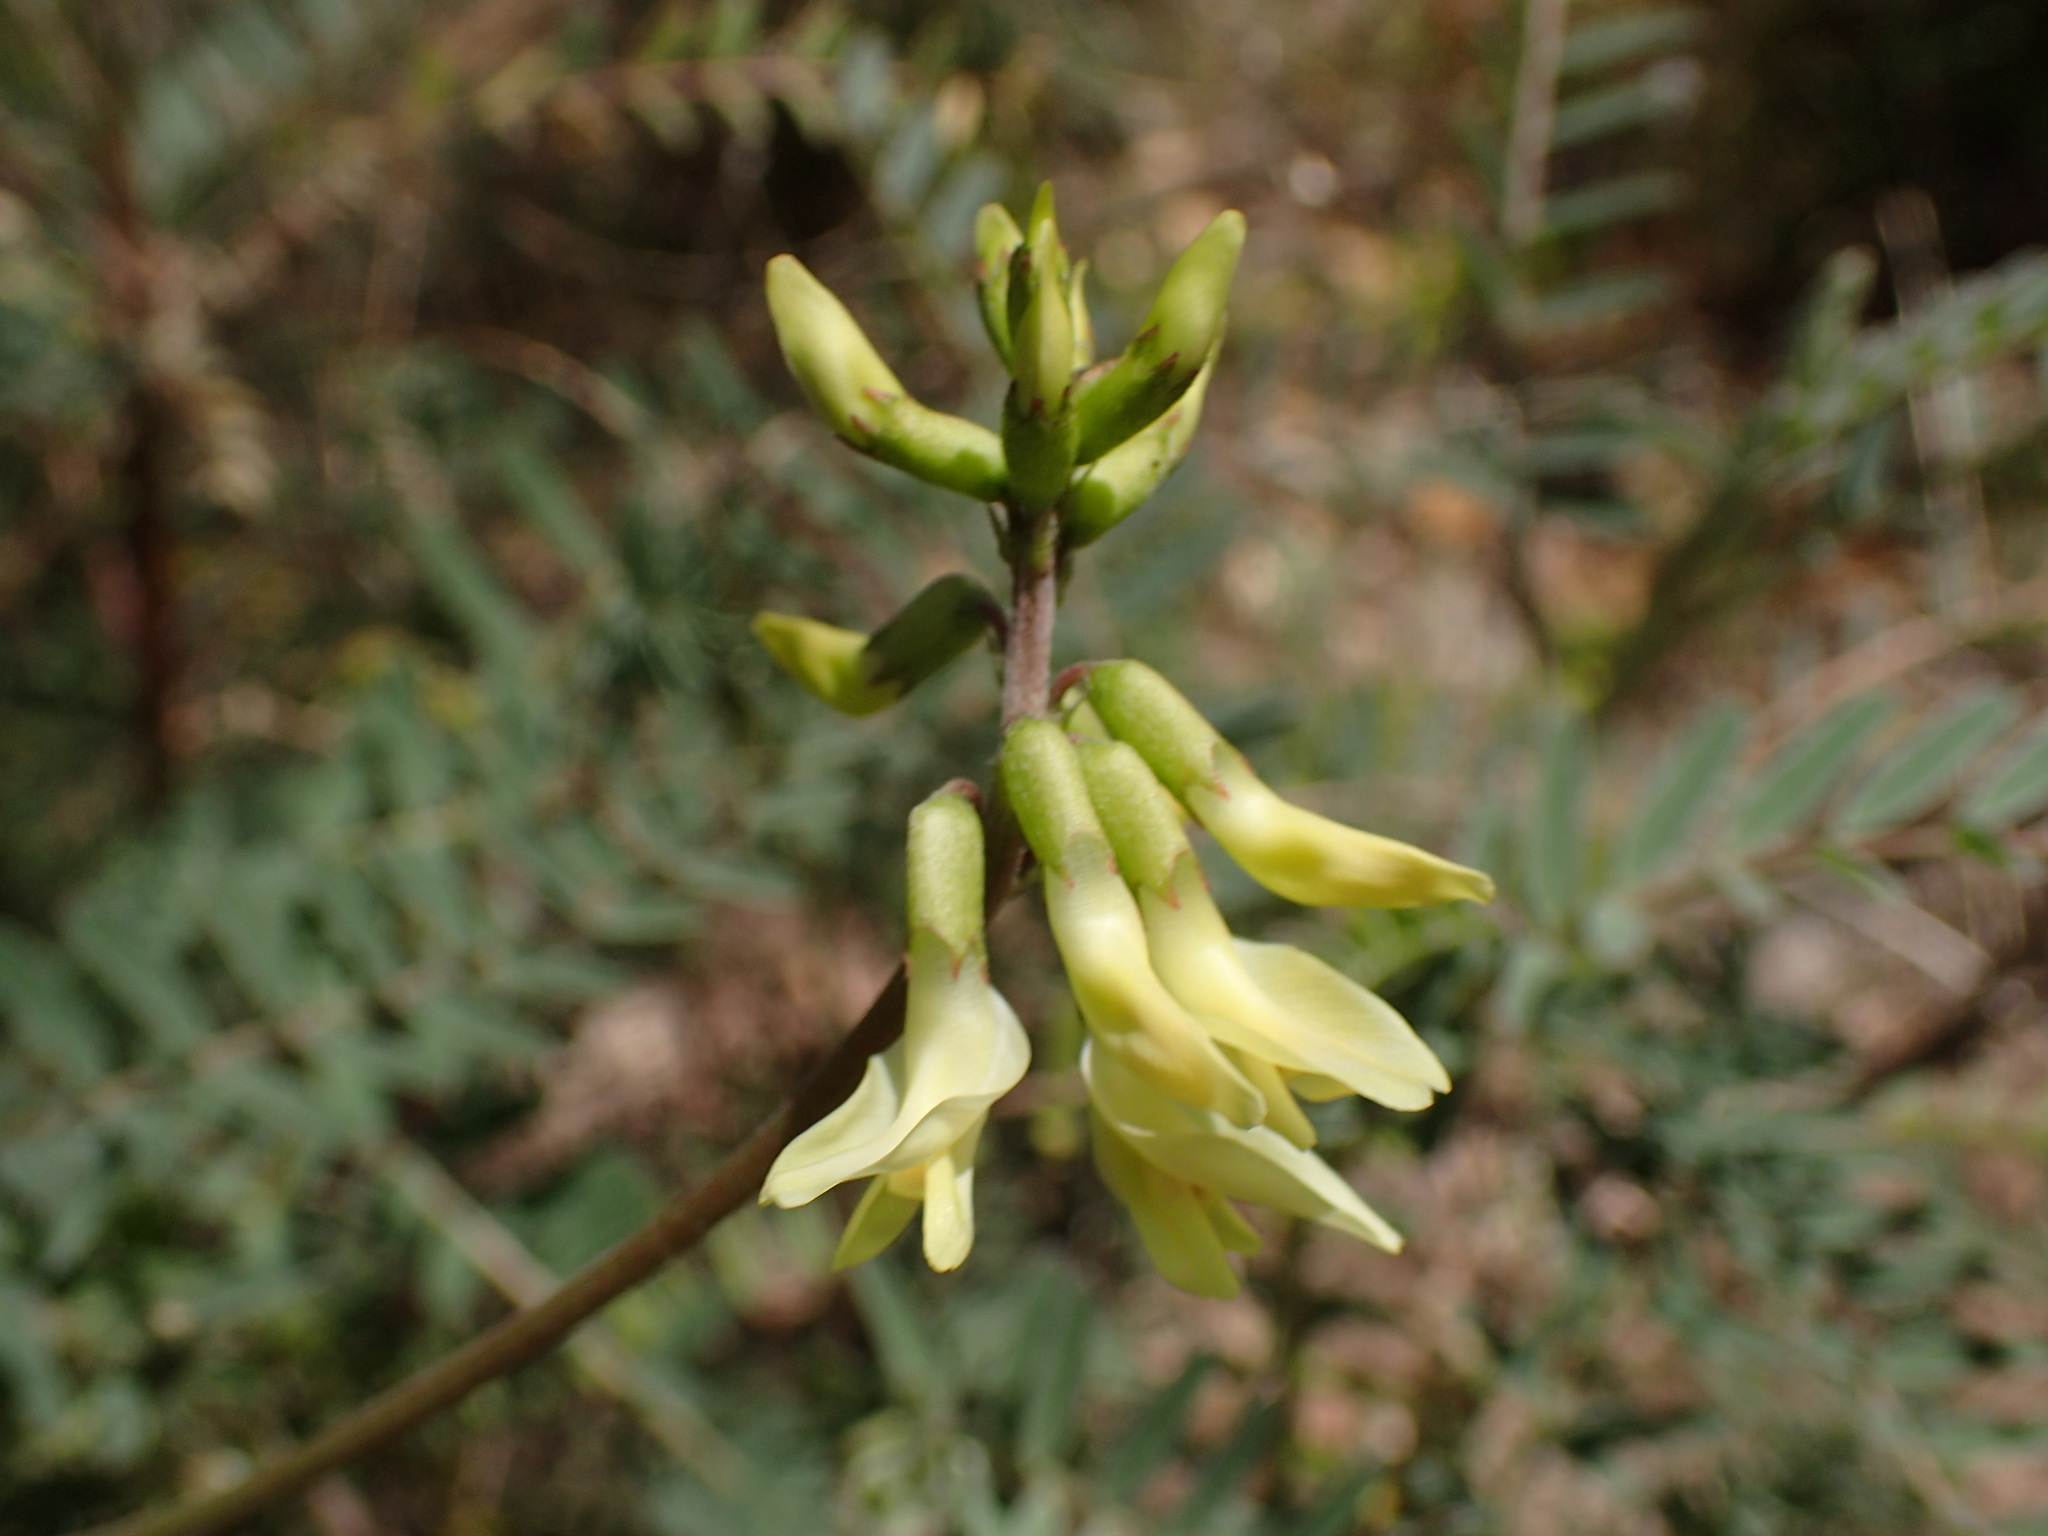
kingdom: Plantae
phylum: Tracheophyta
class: Magnoliopsida
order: Fabales
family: Fabaceae
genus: Astragalus
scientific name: Astragalus trichopodus
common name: Santa barbara milk-vetch
